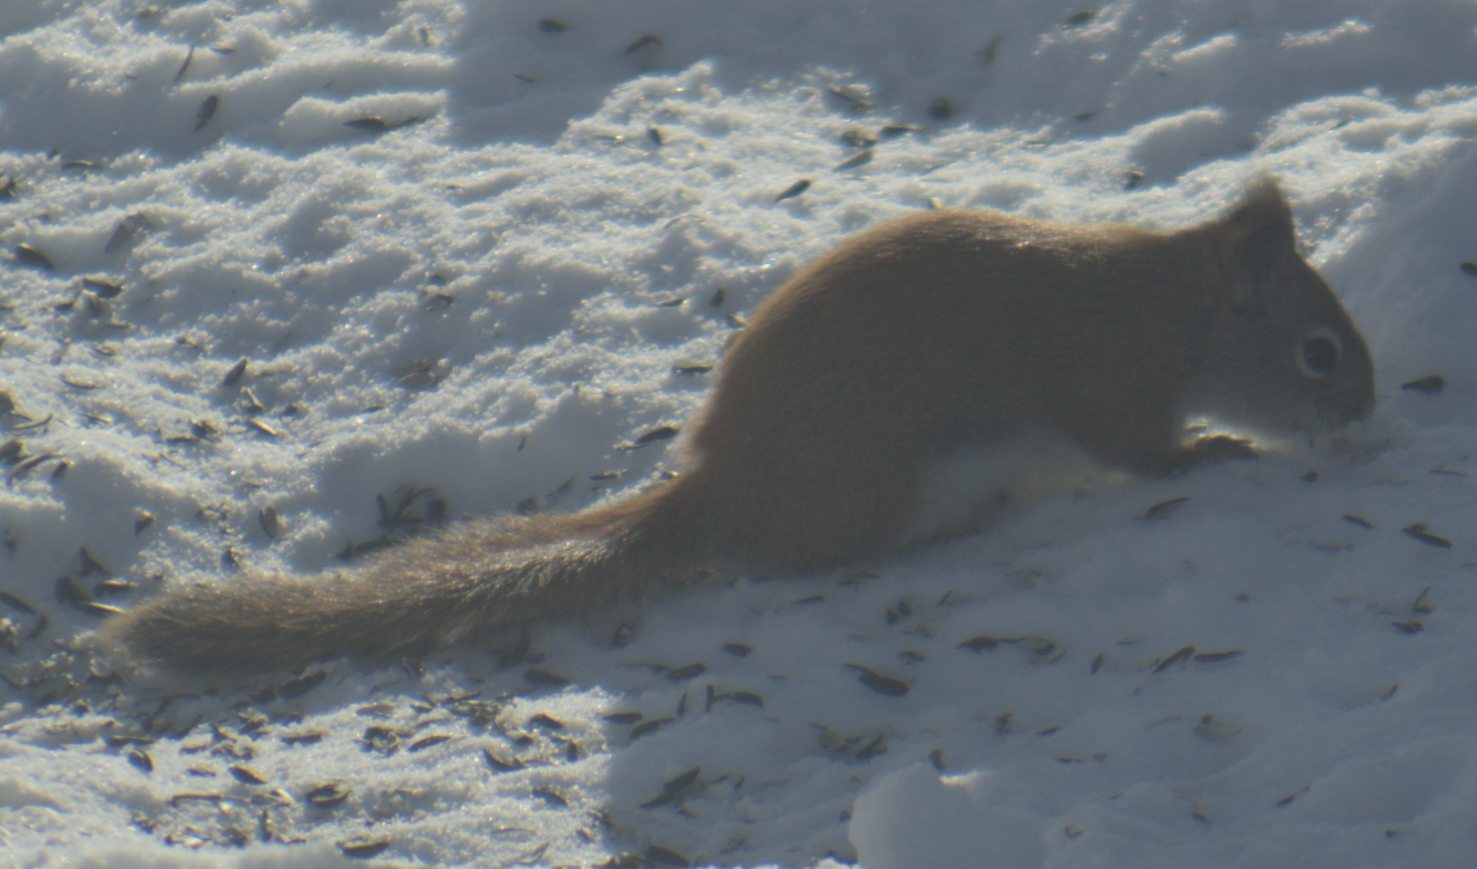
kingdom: Animalia
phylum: Chordata
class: Mammalia
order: Rodentia
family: Sciuridae
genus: Tamiasciurus
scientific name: Tamiasciurus hudsonicus
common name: Red squirrel
